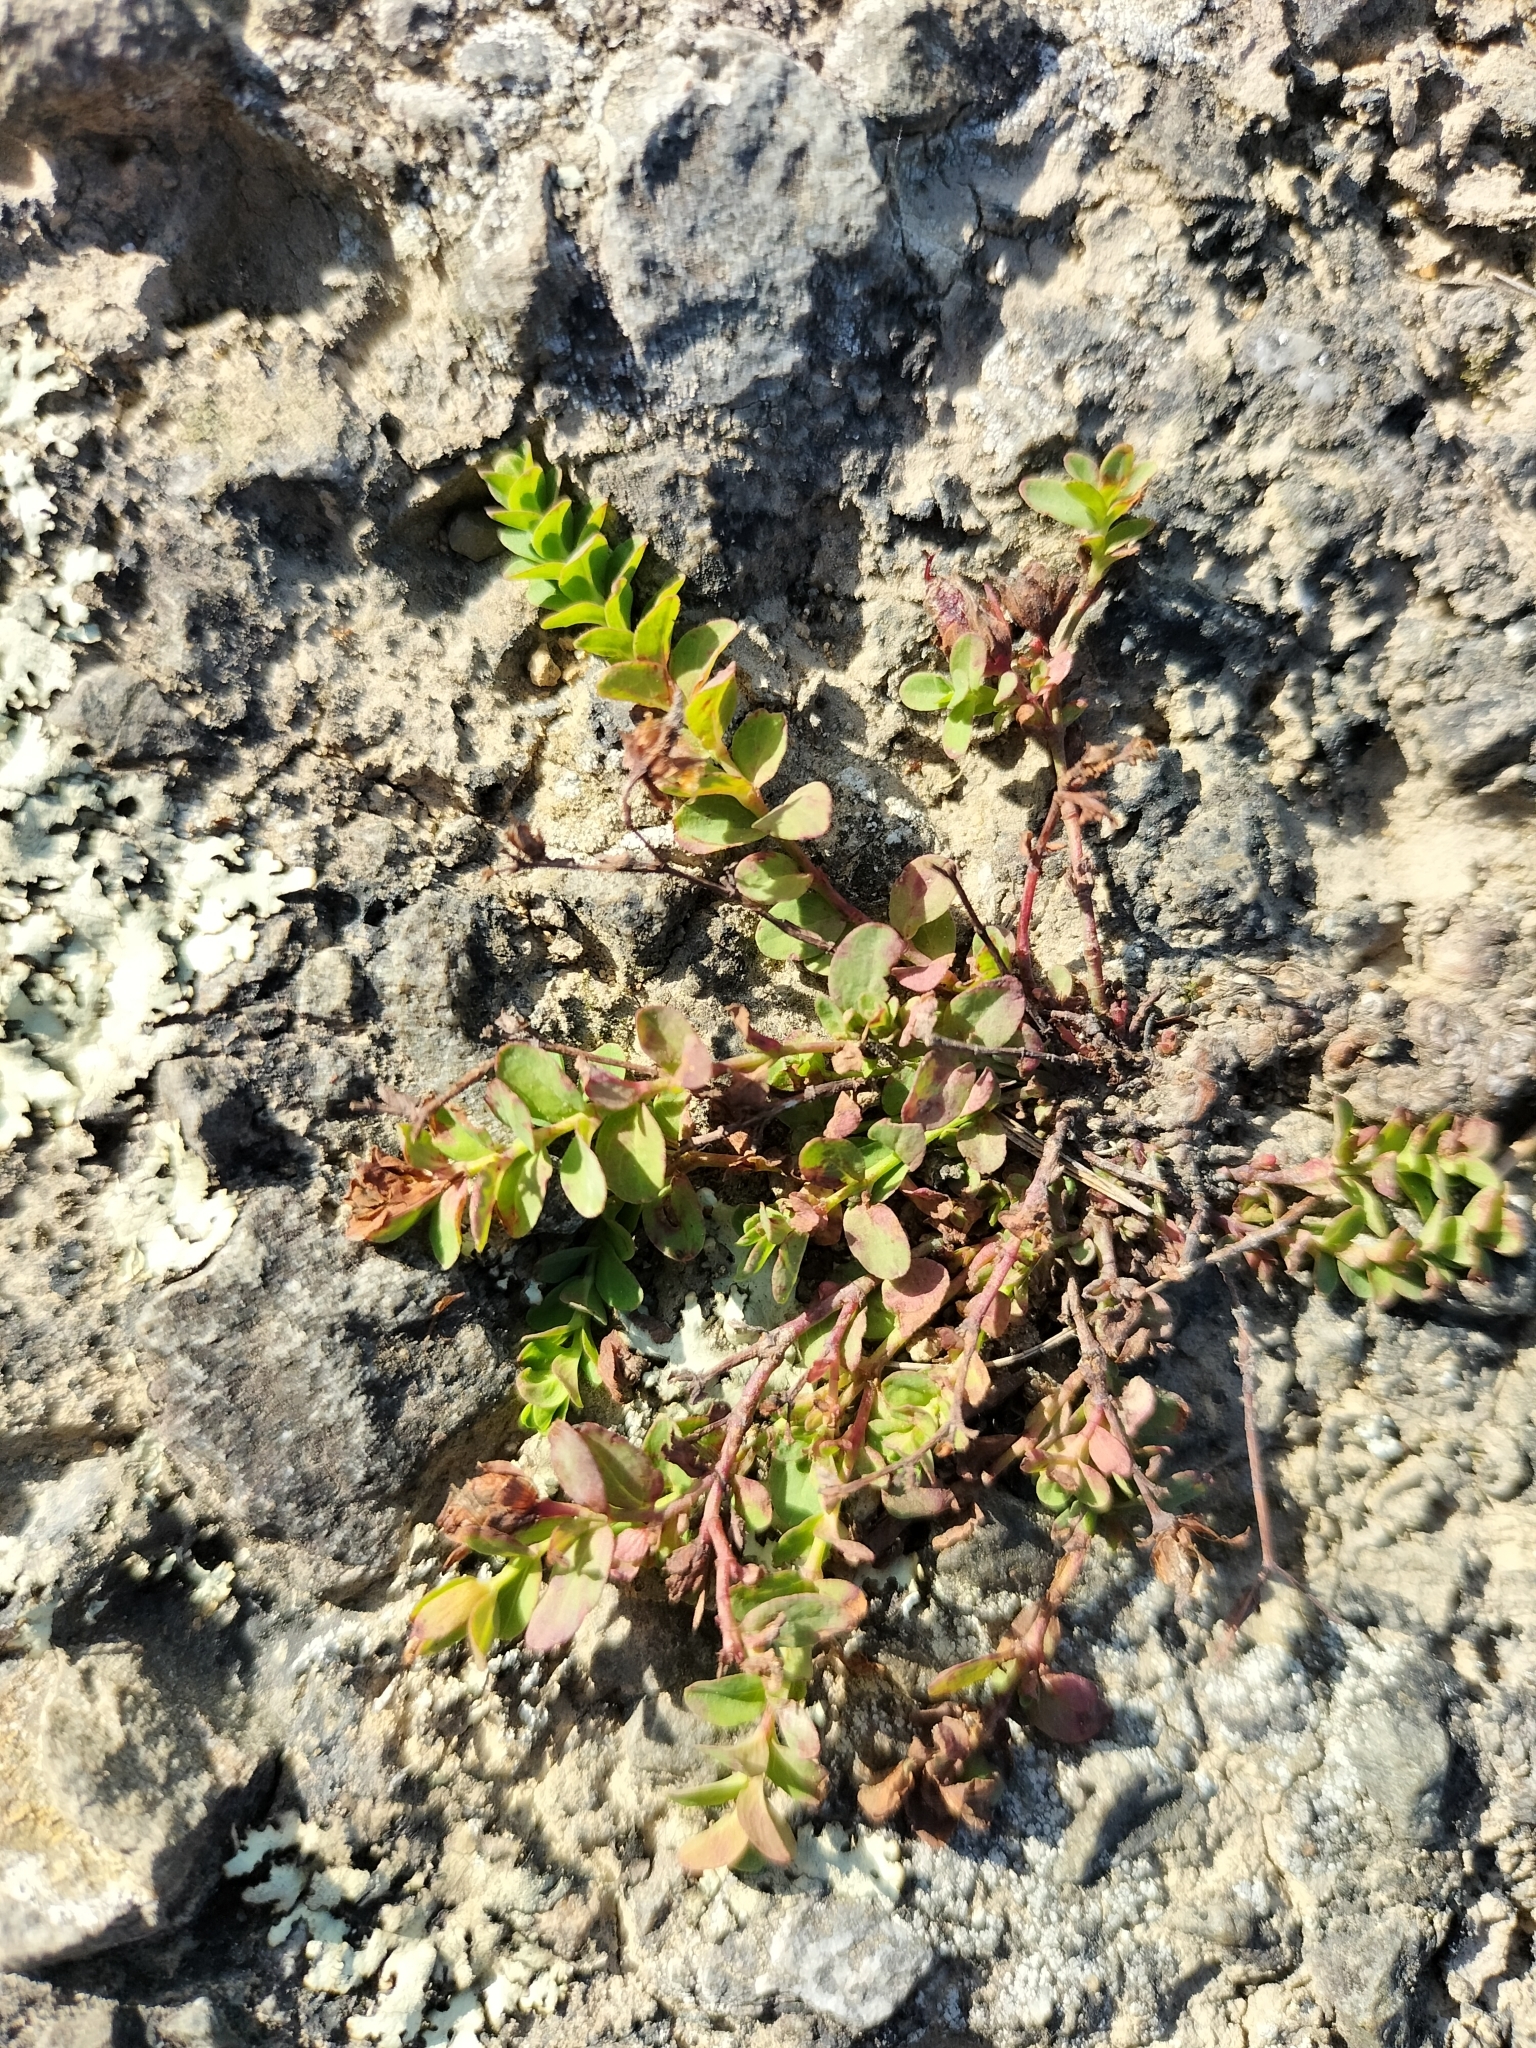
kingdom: Plantae
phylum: Tracheophyta
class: Magnoliopsida
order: Malpighiales
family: Hypericaceae
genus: Hypericum
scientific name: Hypericum humifusum
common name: Trailing st. john's-wort
